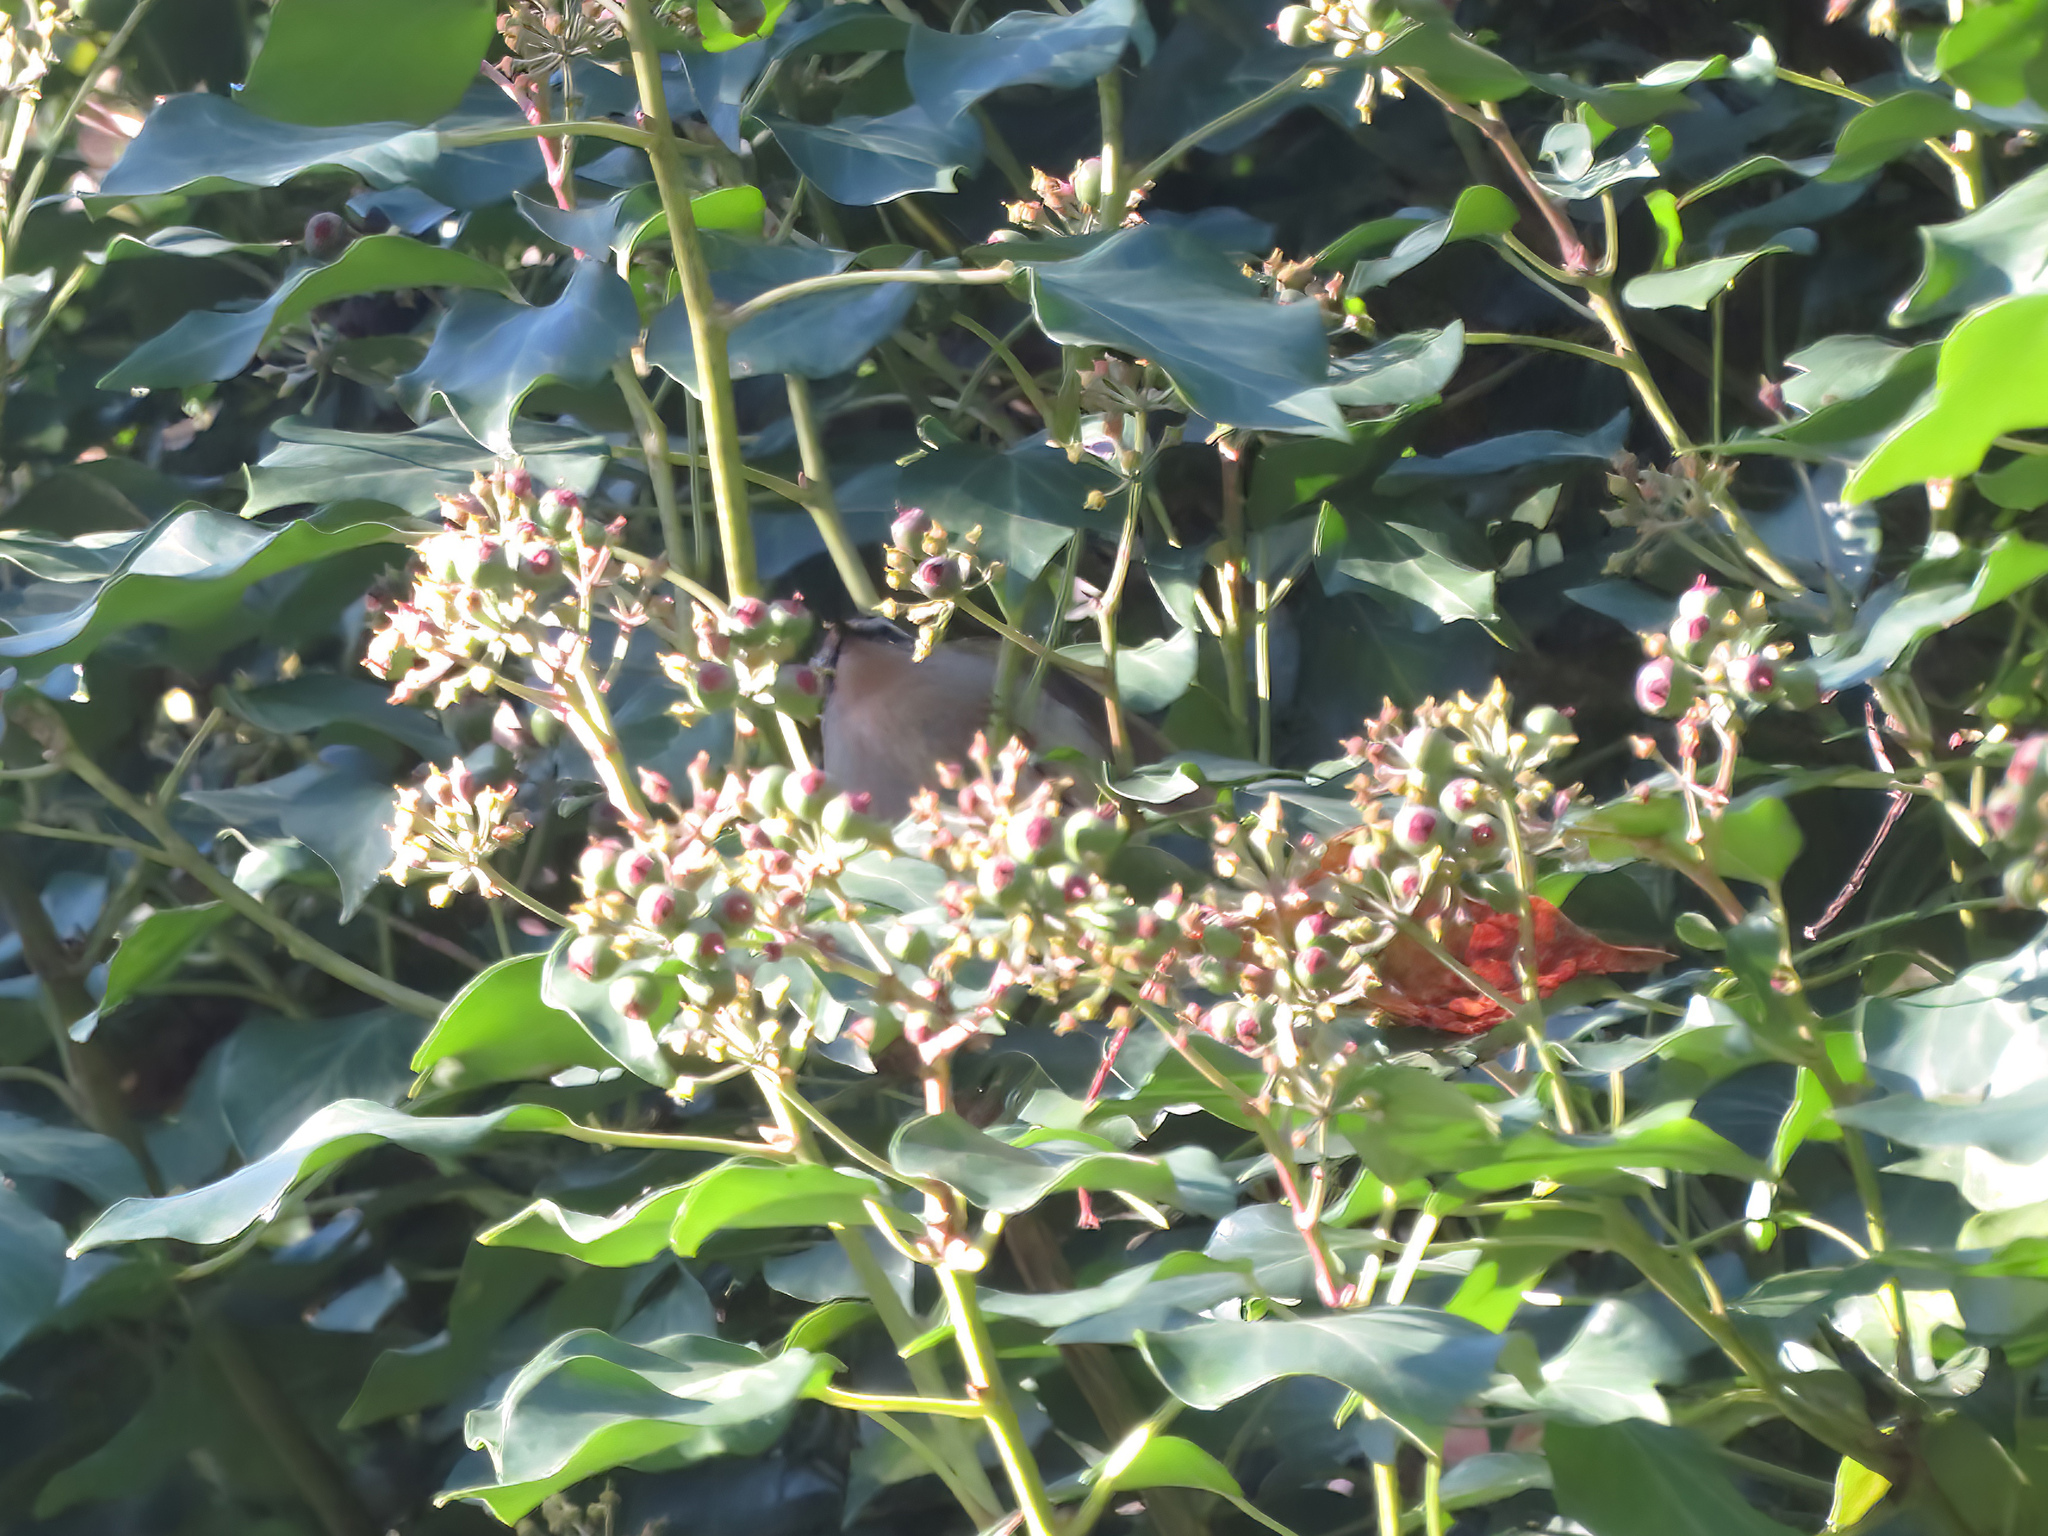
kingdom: Animalia
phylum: Chordata
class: Aves
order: Passeriformes
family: Regulidae
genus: Regulus
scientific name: Regulus ignicapilla
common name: Firecrest
